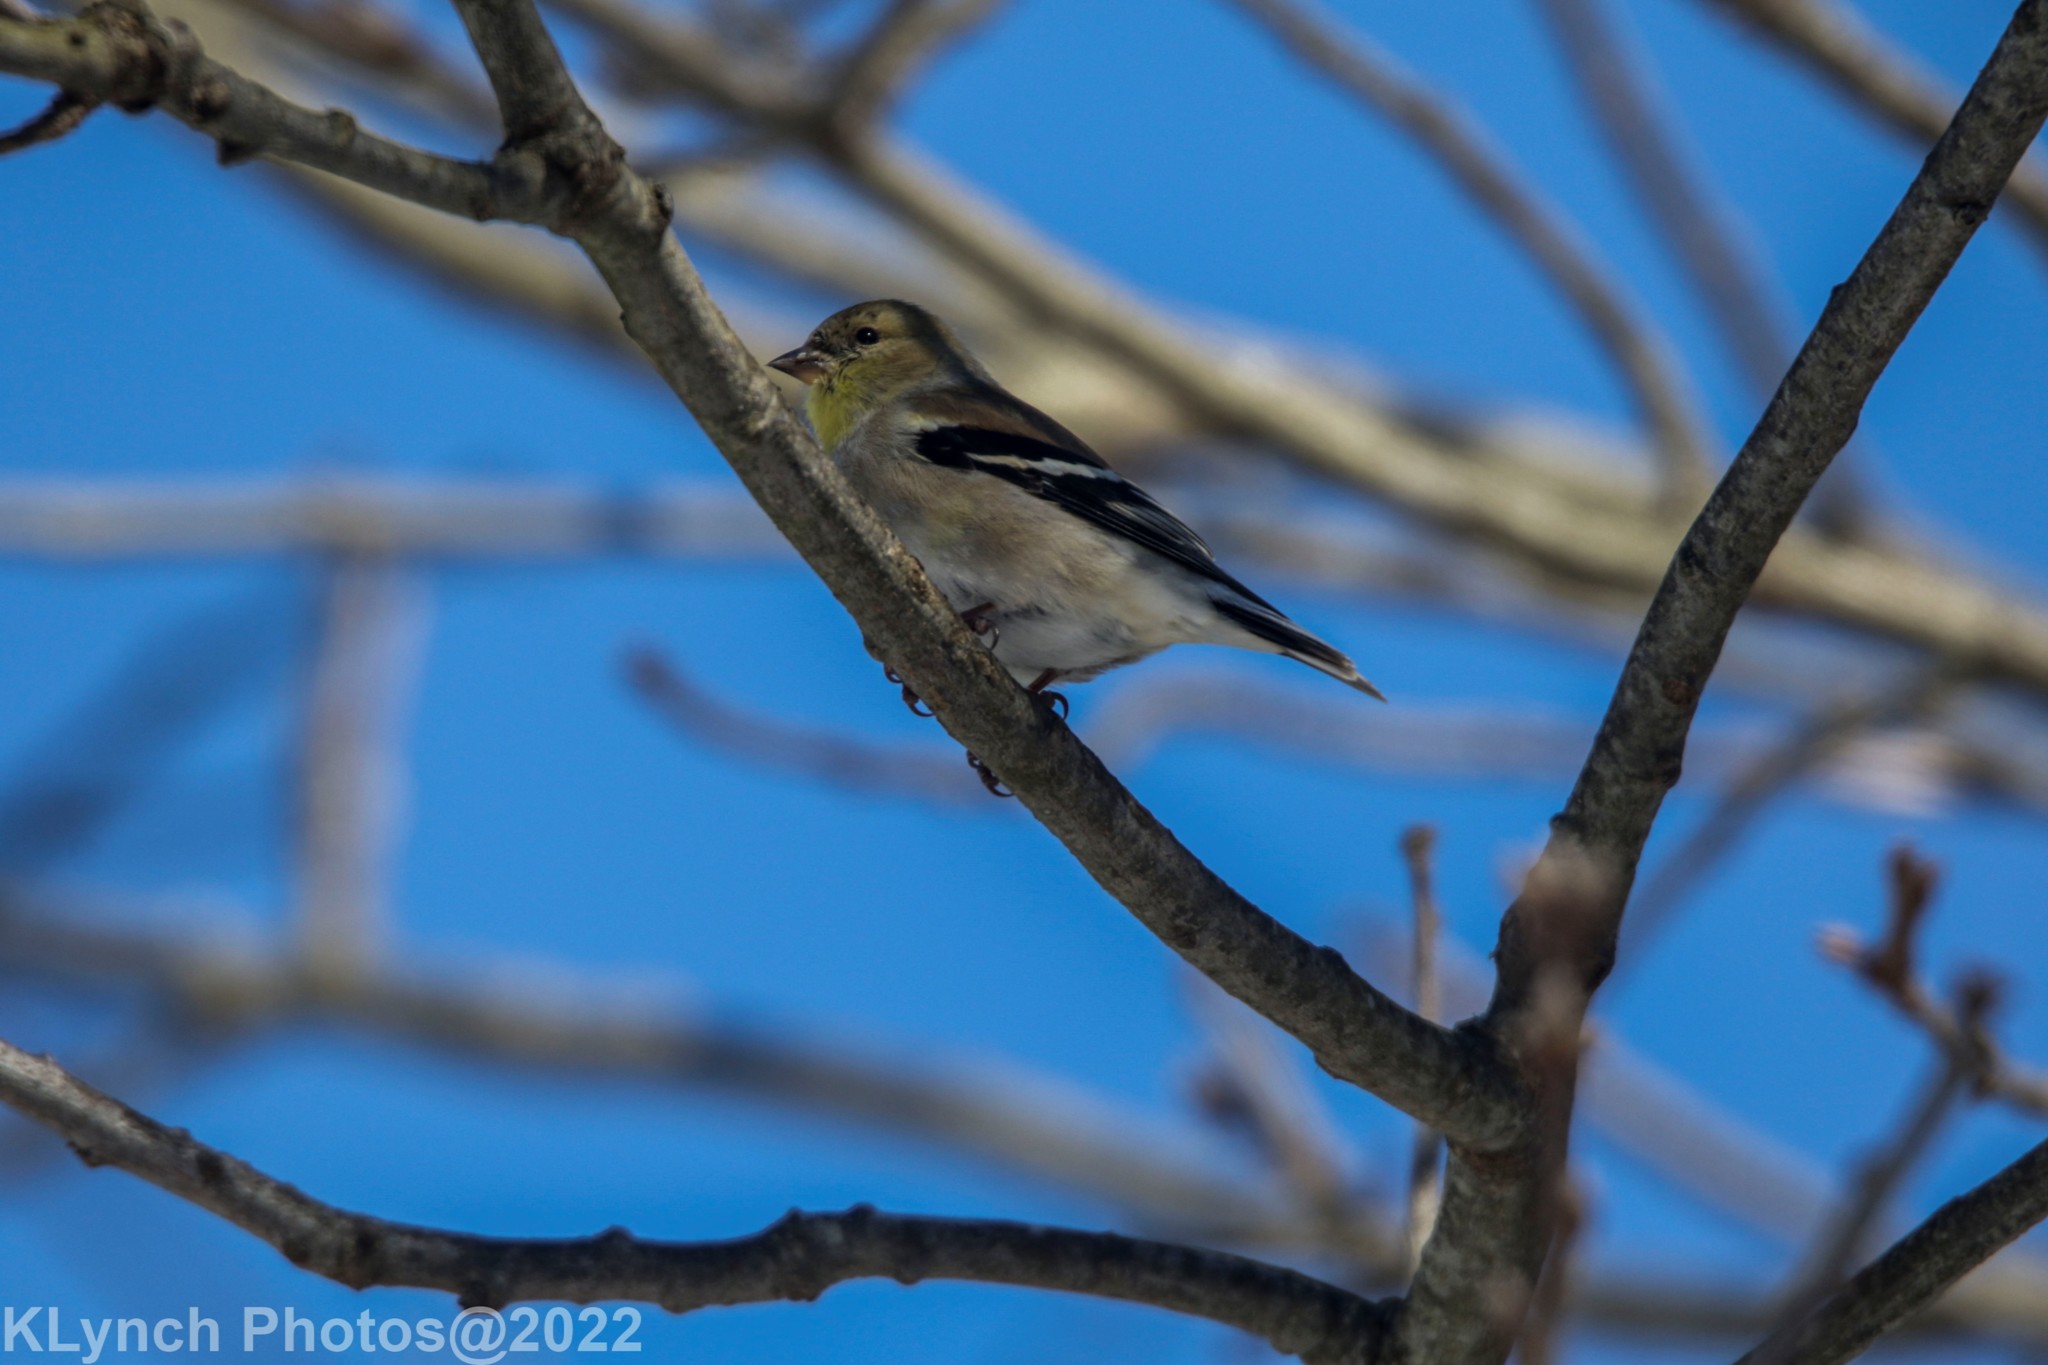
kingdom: Animalia
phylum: Chordata
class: Aves
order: Passeriformes
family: Fringillidae
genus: Spinus
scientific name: Spinus tristis
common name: American goldfinch
